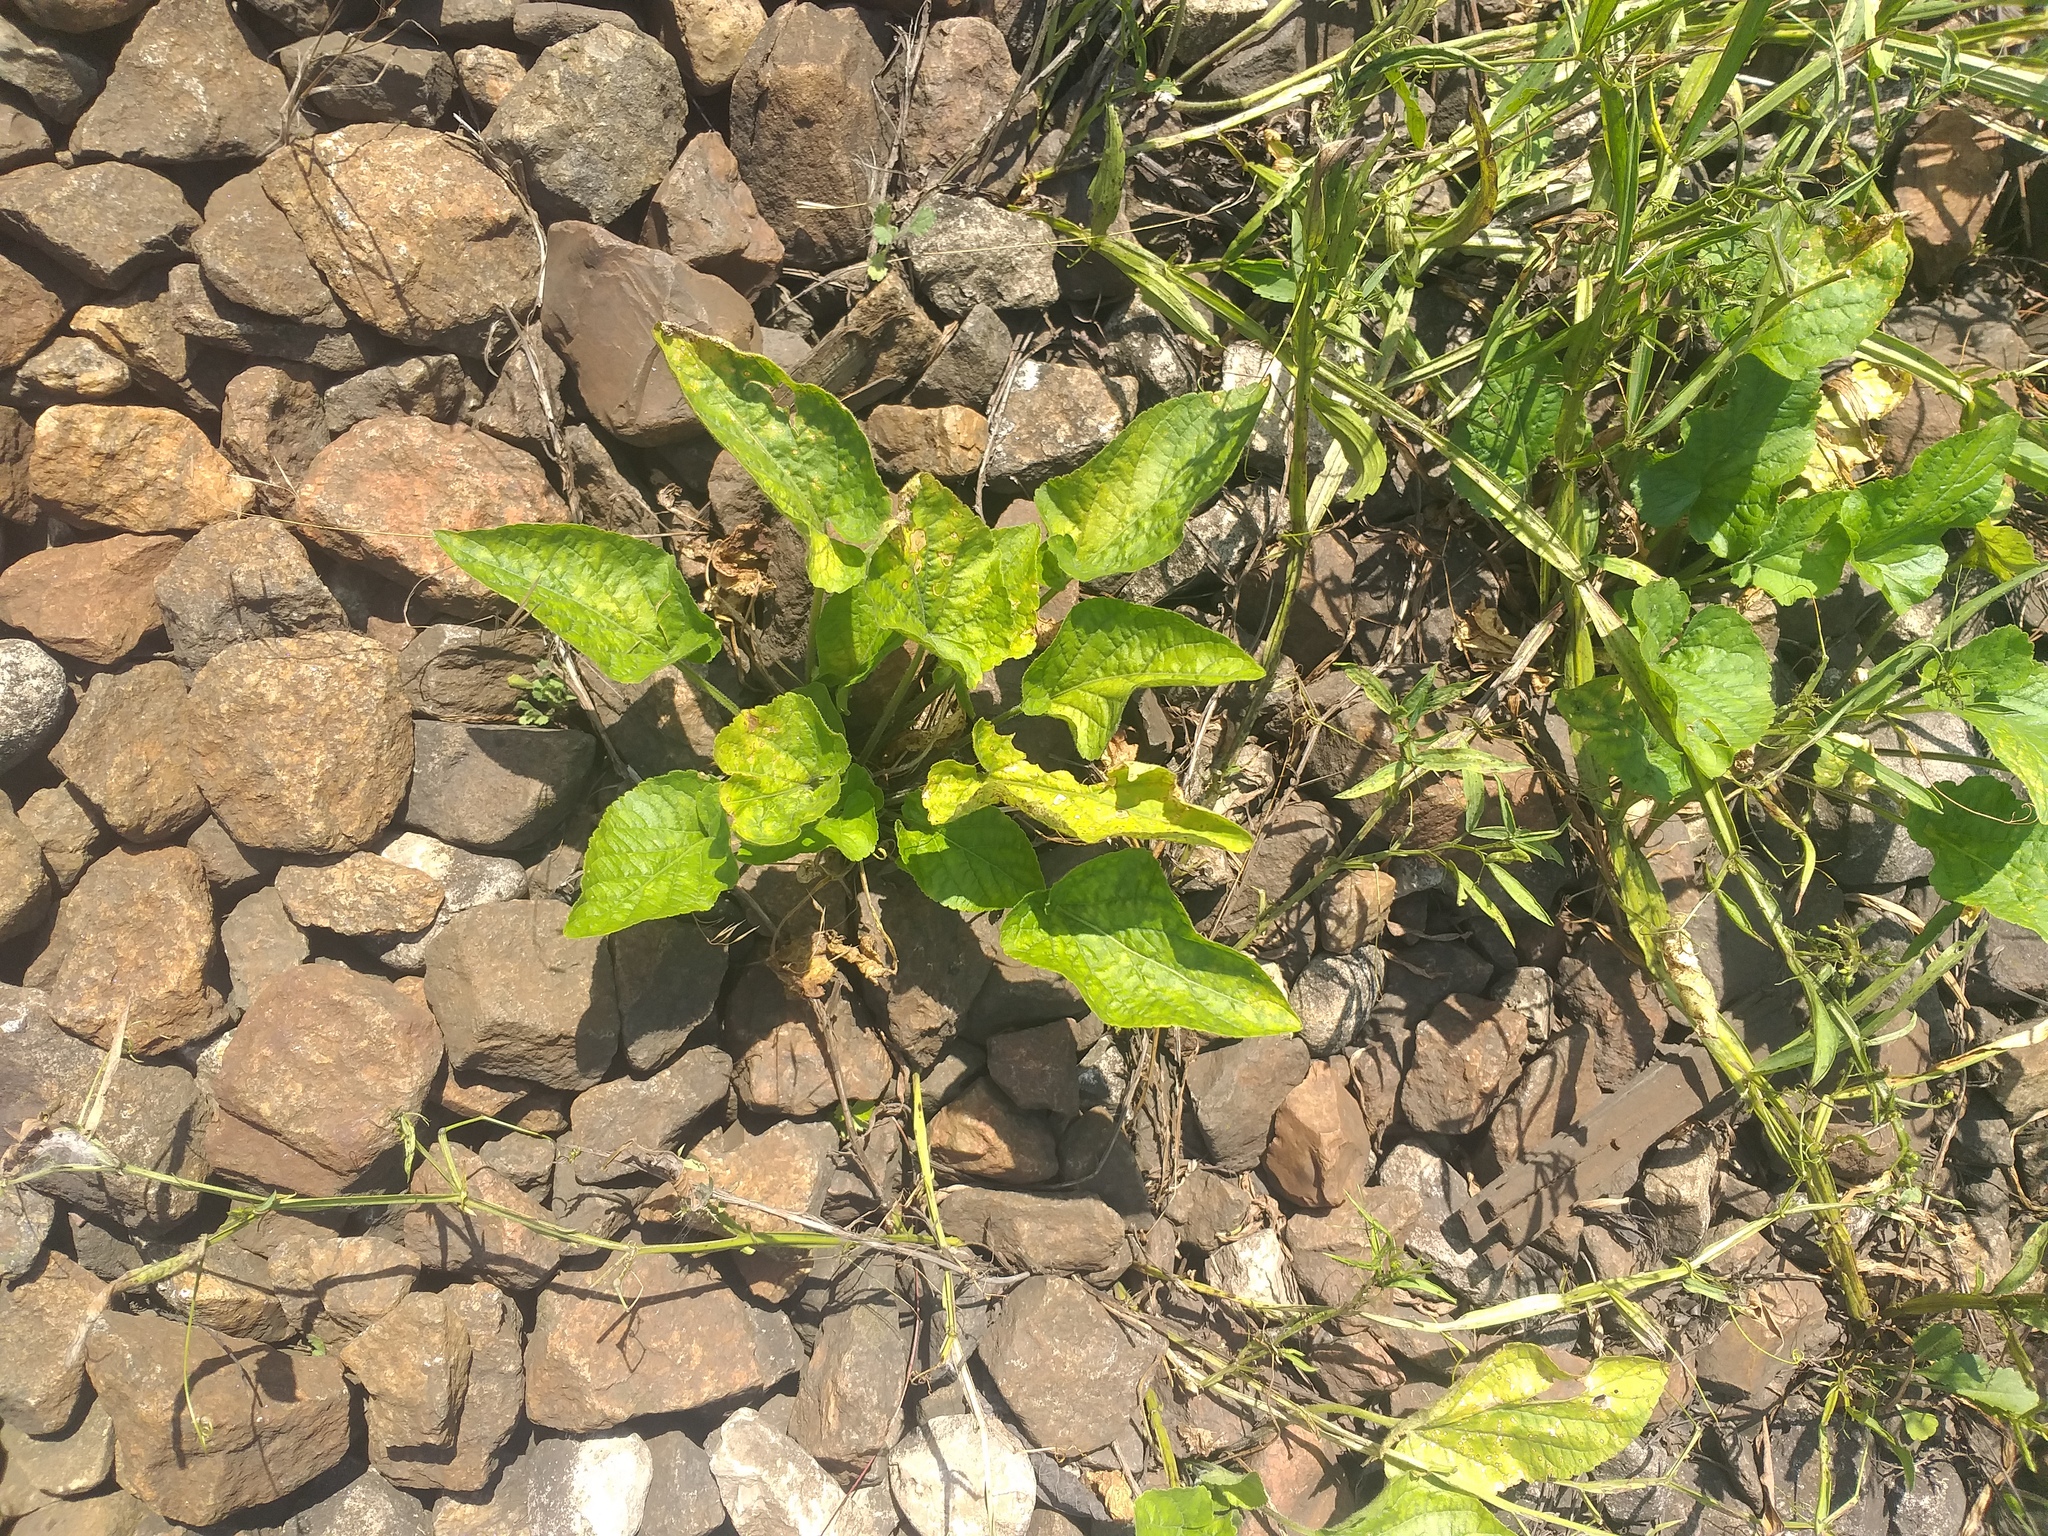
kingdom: Plantae
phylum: Tracheophyta
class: Magnoliopsida
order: Malpighiales
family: Violaceae
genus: Viola
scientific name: Viola hirta
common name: Hairy violet
